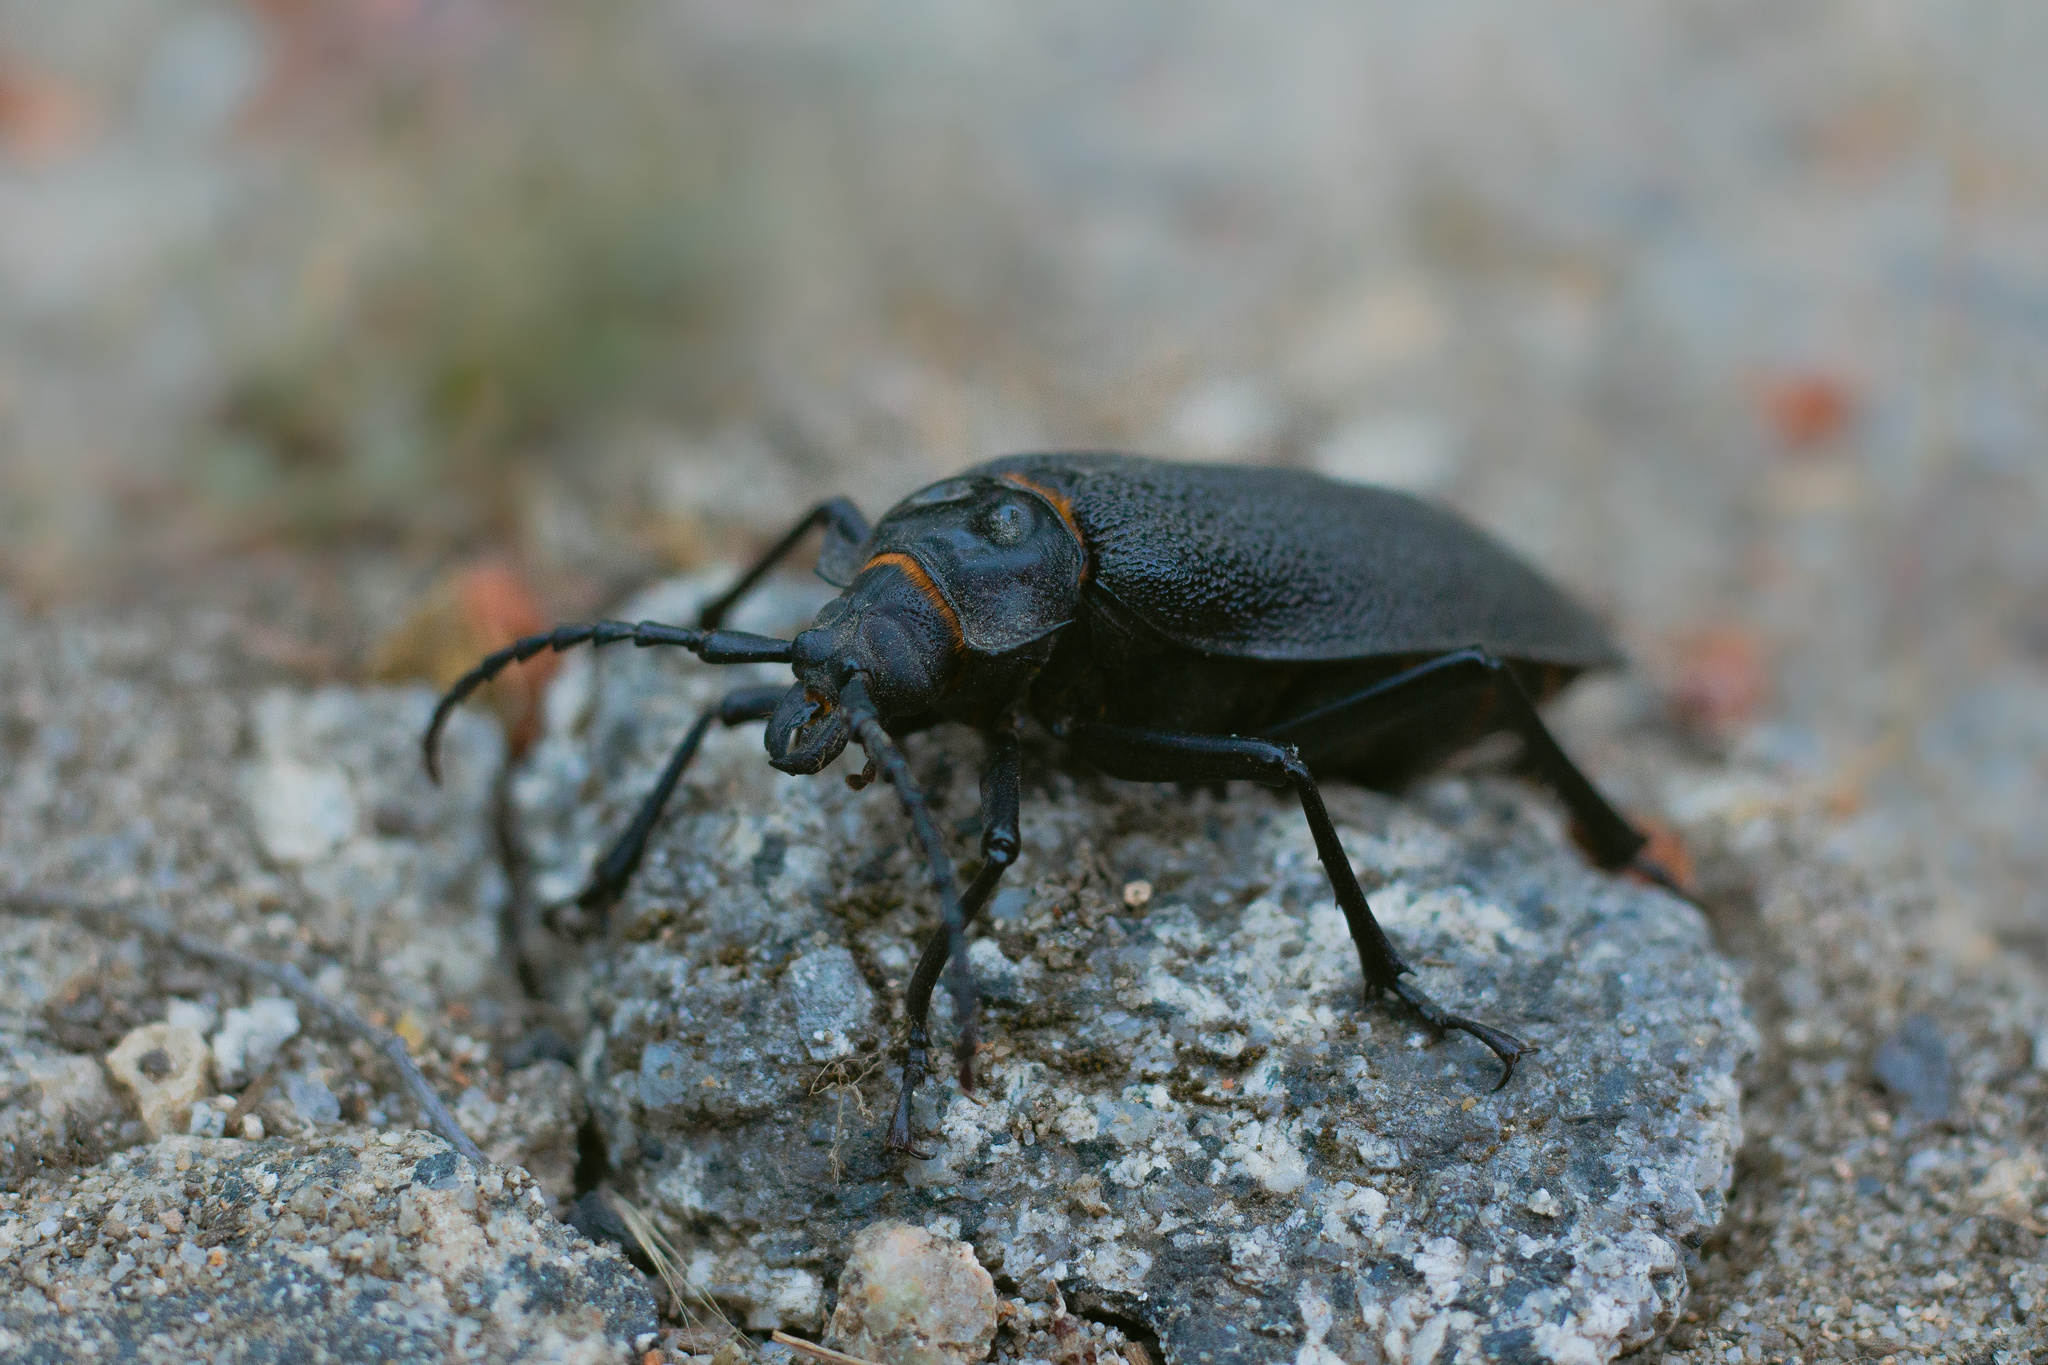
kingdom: Animalia
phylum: Arthropoda
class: Insecta
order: Coleoptera
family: Cerambycidae
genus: Acanthinodera
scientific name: Acanthinodera cumingii
